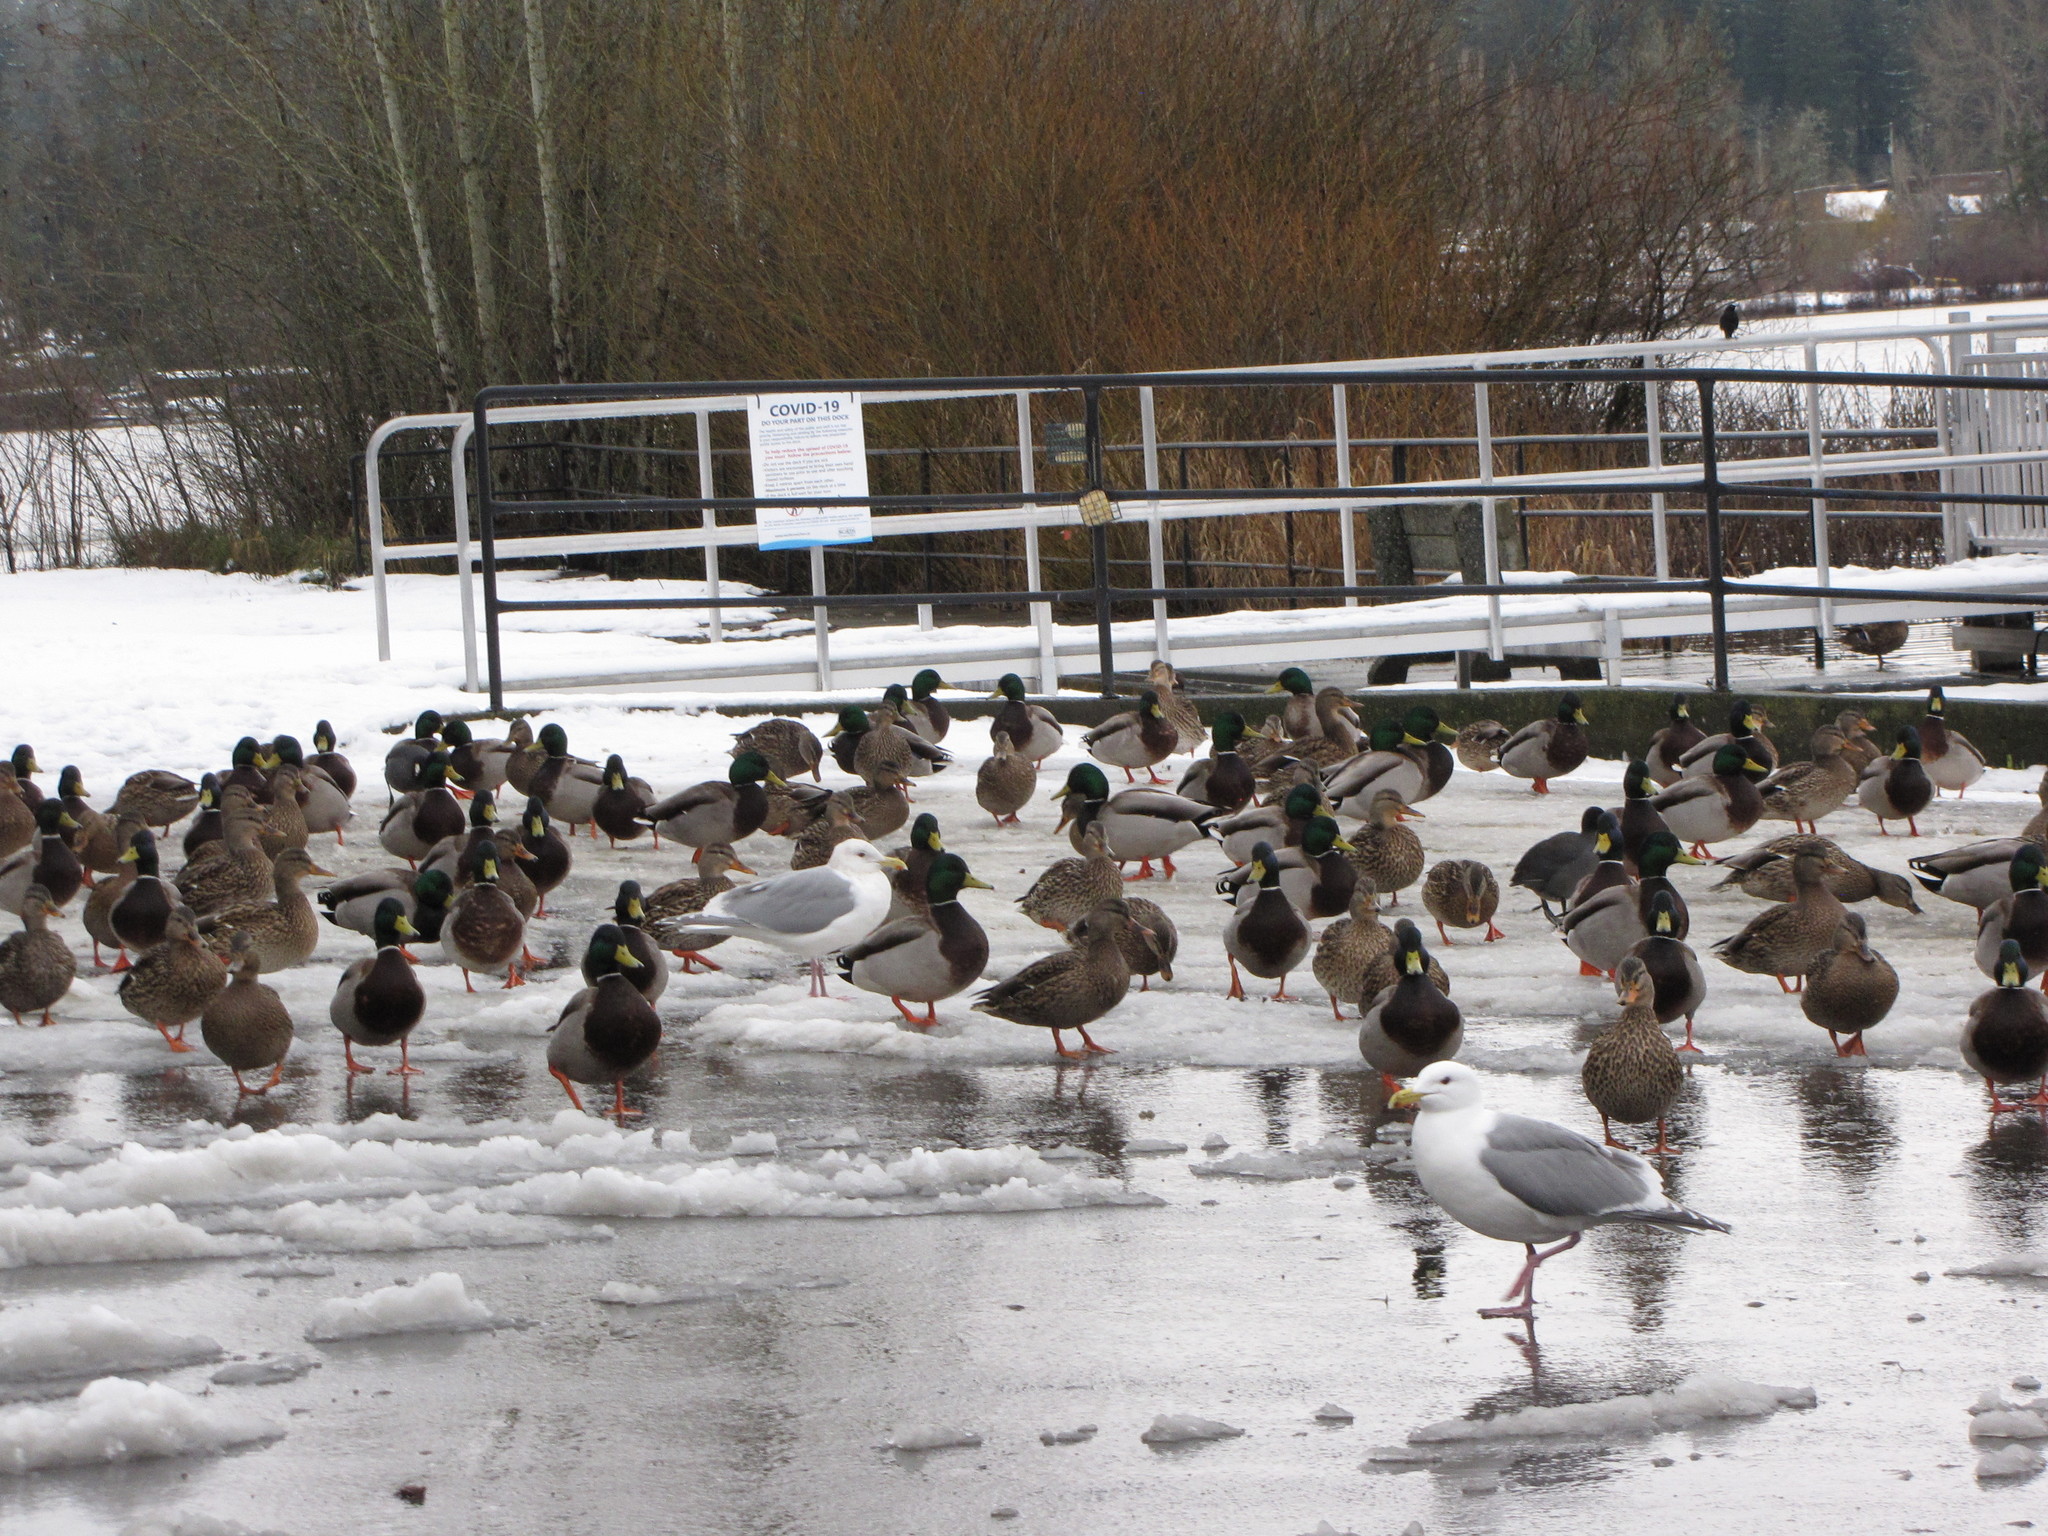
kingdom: Animalia
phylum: Chordata
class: Aves
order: Anseriformes
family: Anatidae
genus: Anas
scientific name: Anas platyrhynchos
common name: Mallard
